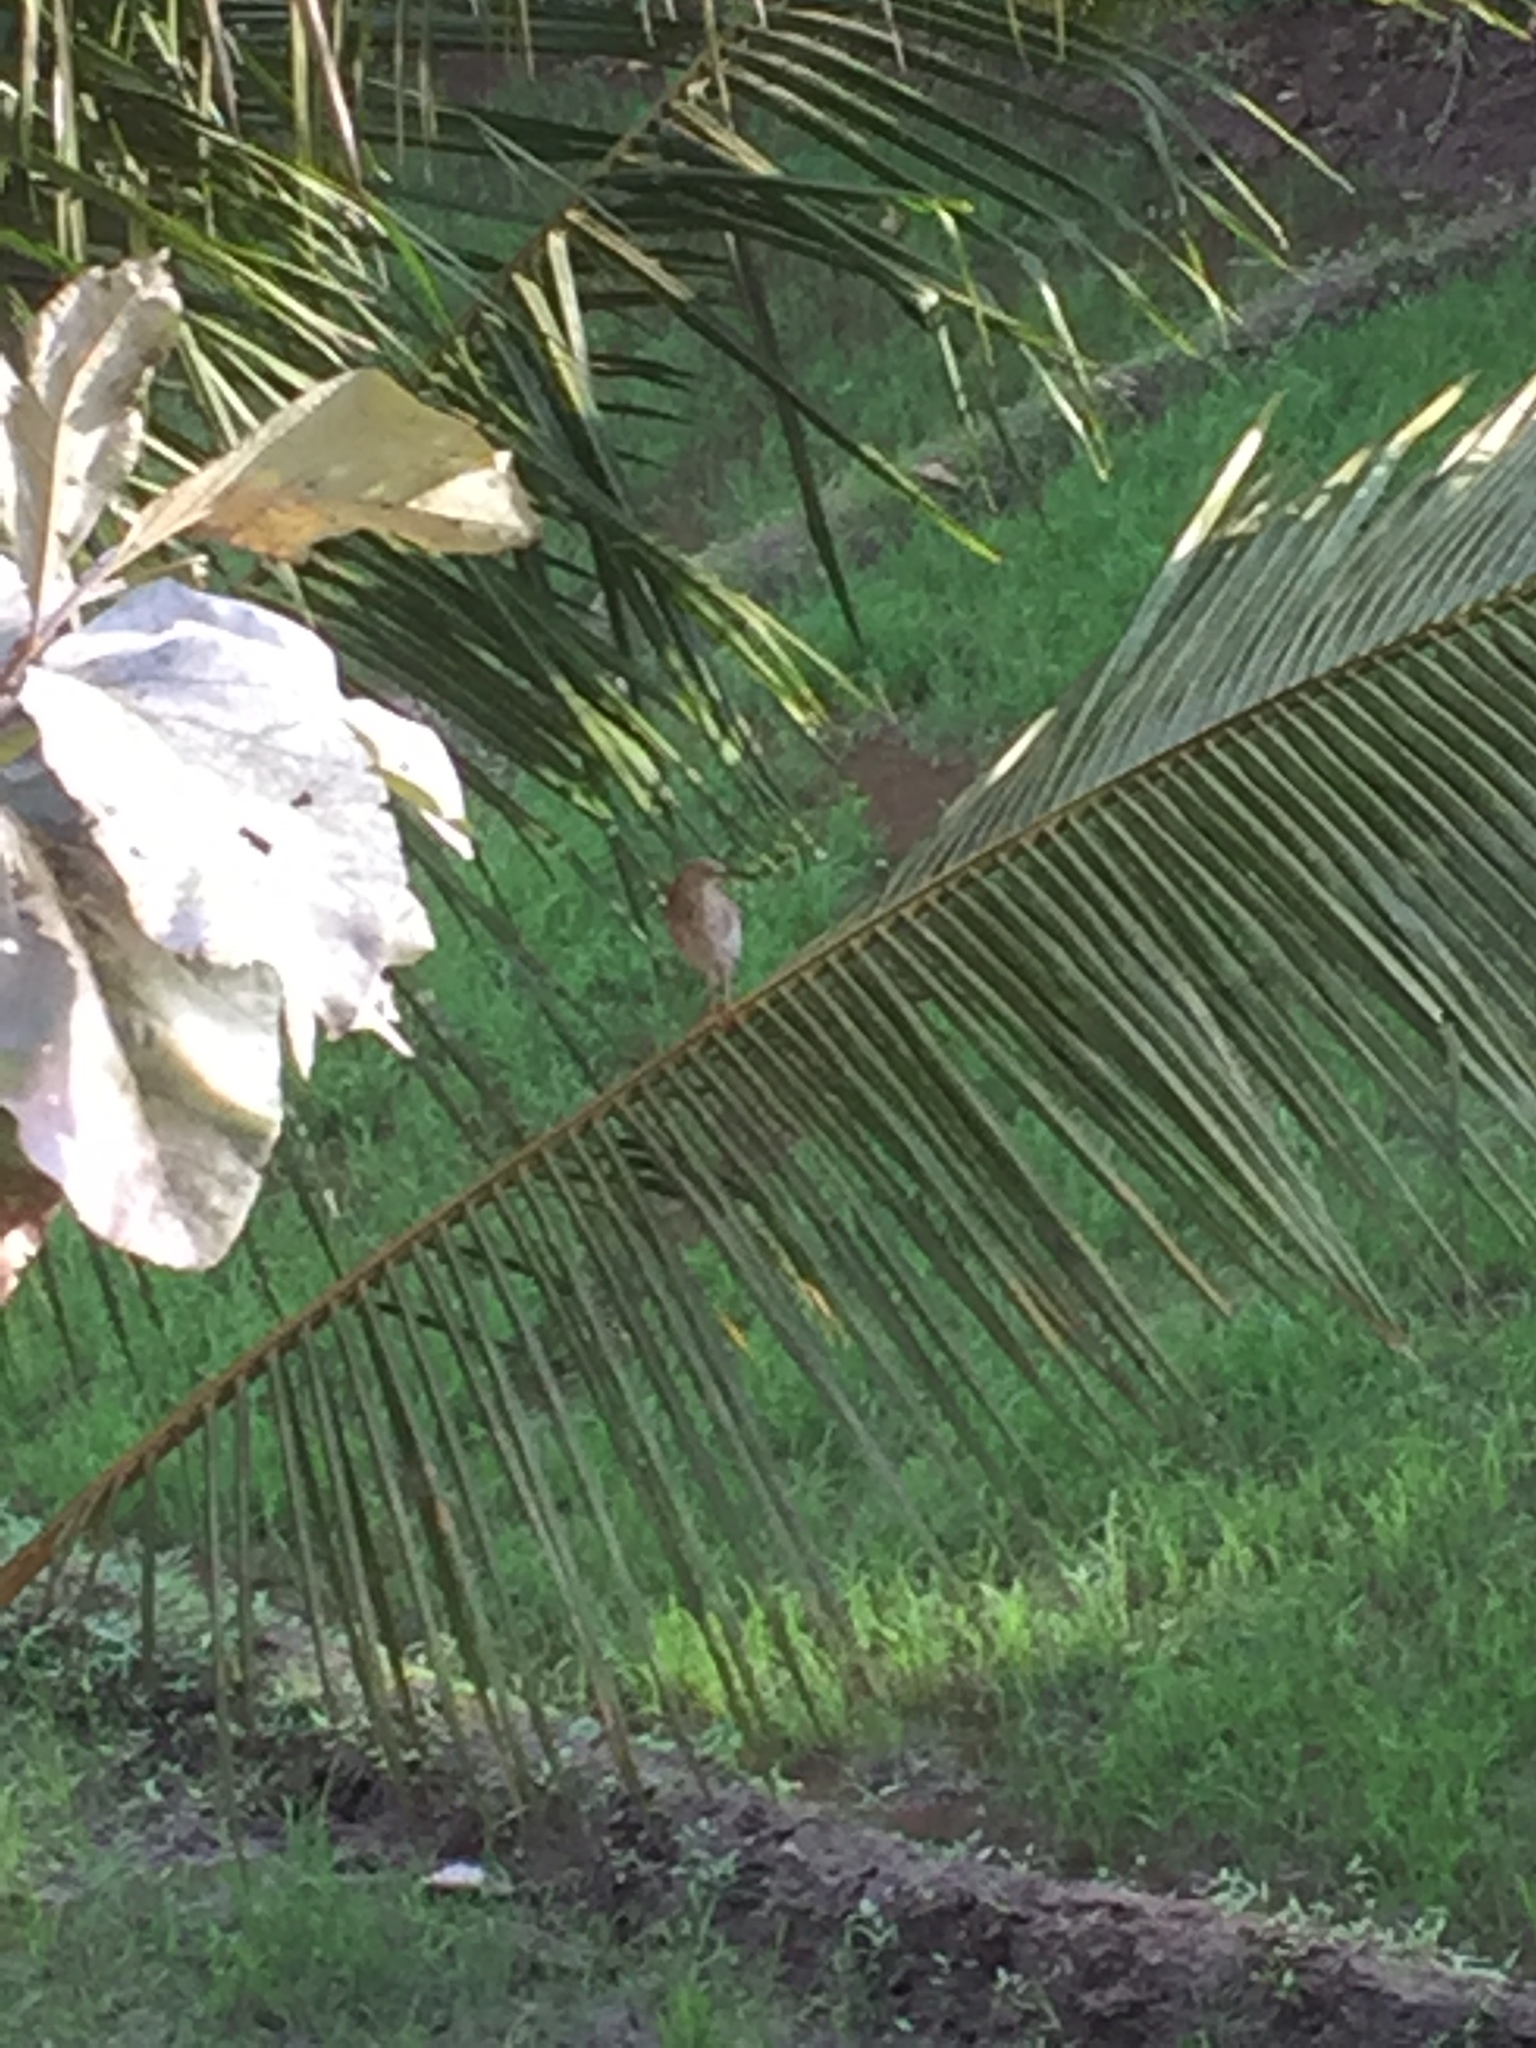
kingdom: Animalia
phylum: Chordata
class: Aves
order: Pelecaniformes
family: Ardeidae
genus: Ardeola
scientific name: Ardeola grayii
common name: Indian pond heron
